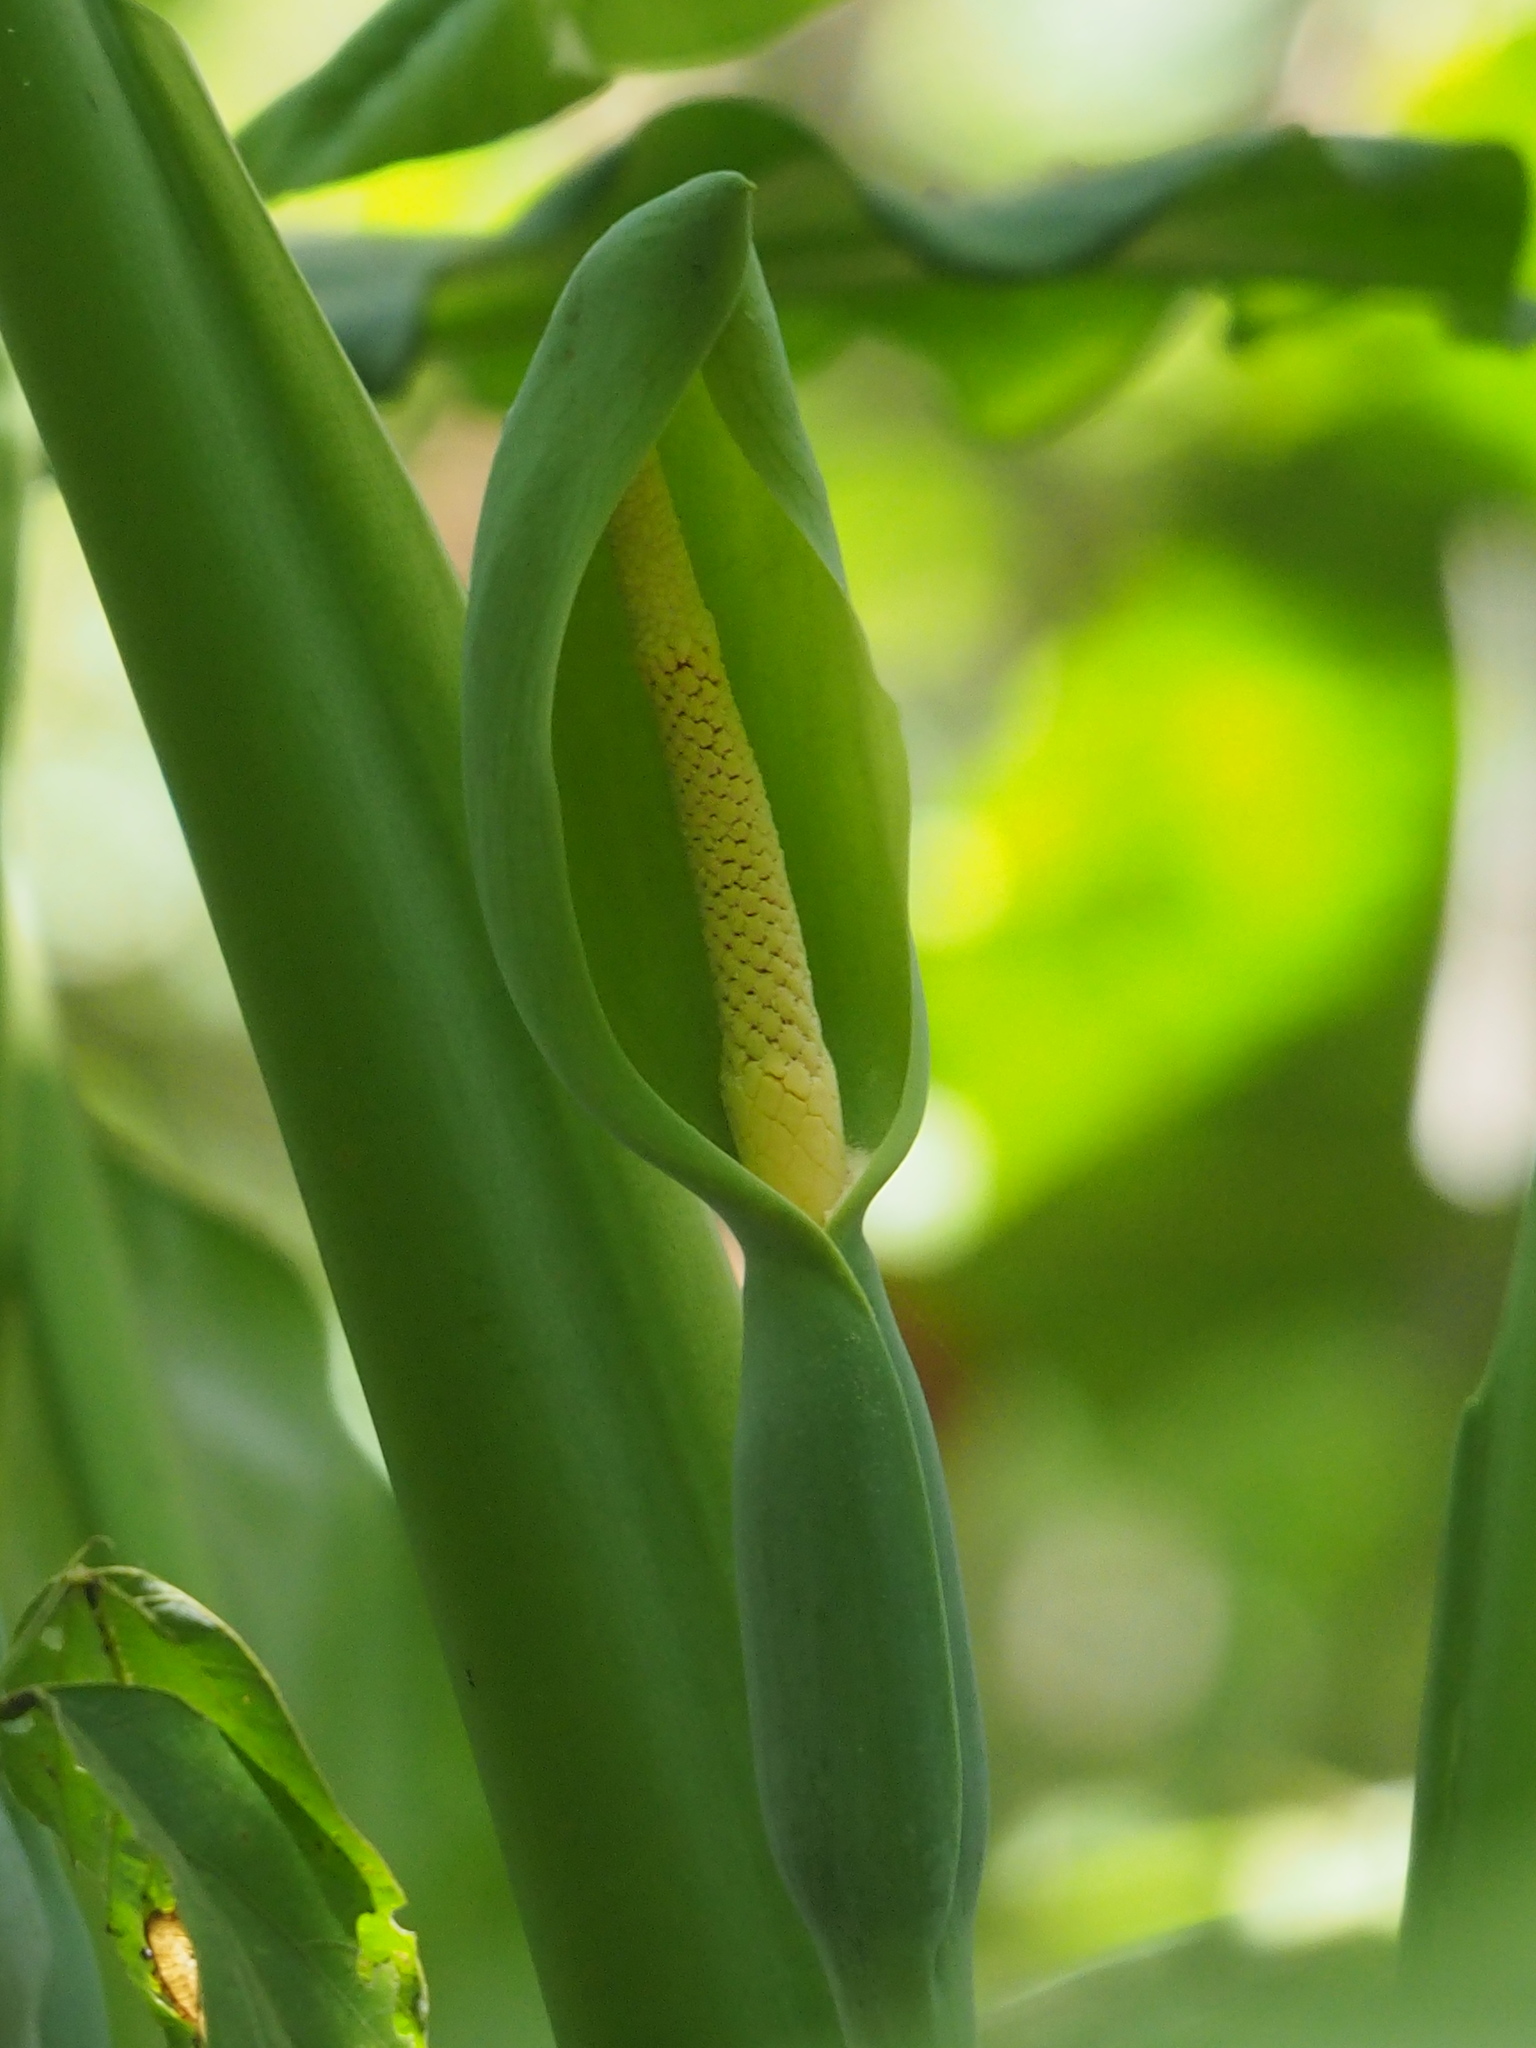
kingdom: Plantae
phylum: Tracheophyta
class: Liliopsida
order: Alismatales
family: Araceae
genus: Alocasia
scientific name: Alocasia odora
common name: Asian taro
